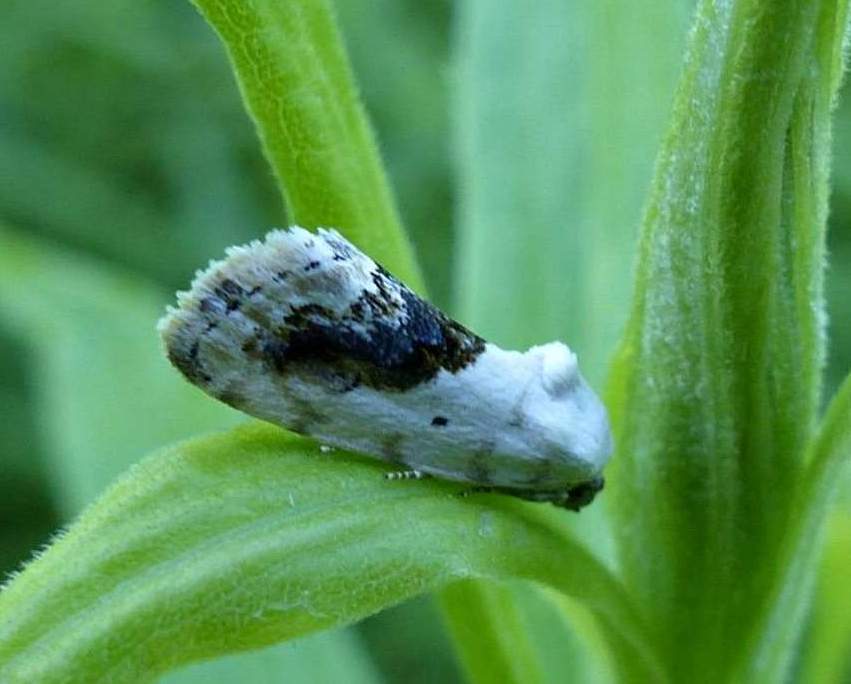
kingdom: Animalia
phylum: Arthropoda
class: Insecta
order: Lepidoptera
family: Noctuidae
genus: Acontia
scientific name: Acontia erastrioides
